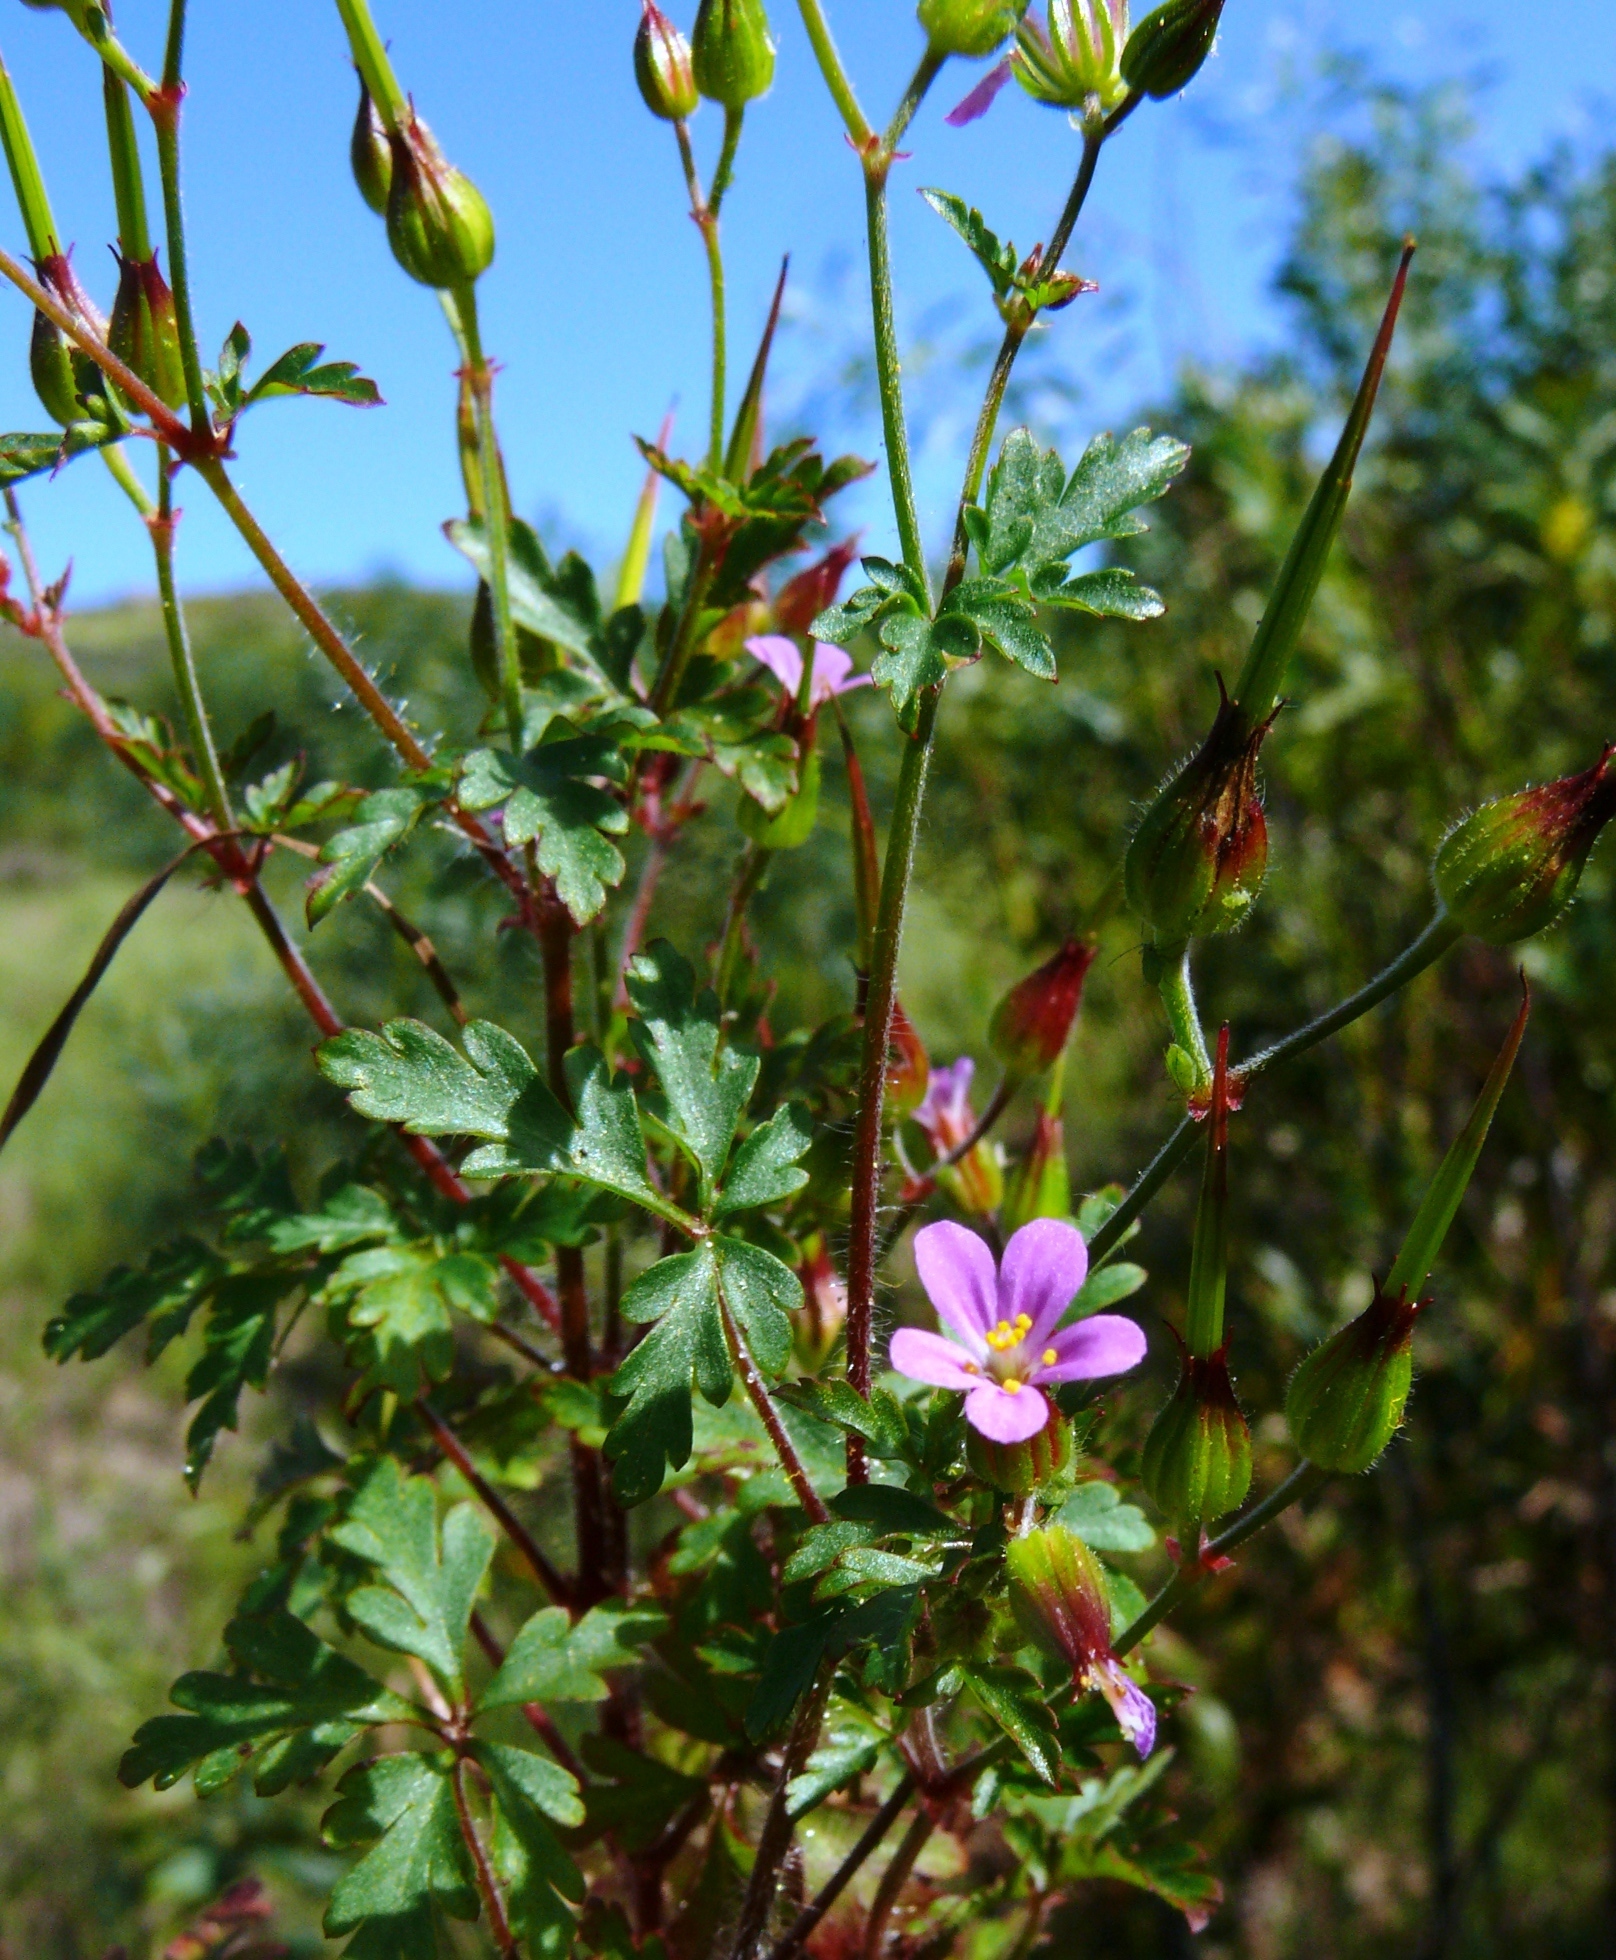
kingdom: Plantae
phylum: Tracheophyta
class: Magnoliopsida
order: Geraniales
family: Geraniaceae
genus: Geranium
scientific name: Geranium purpureum
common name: Little-robin
